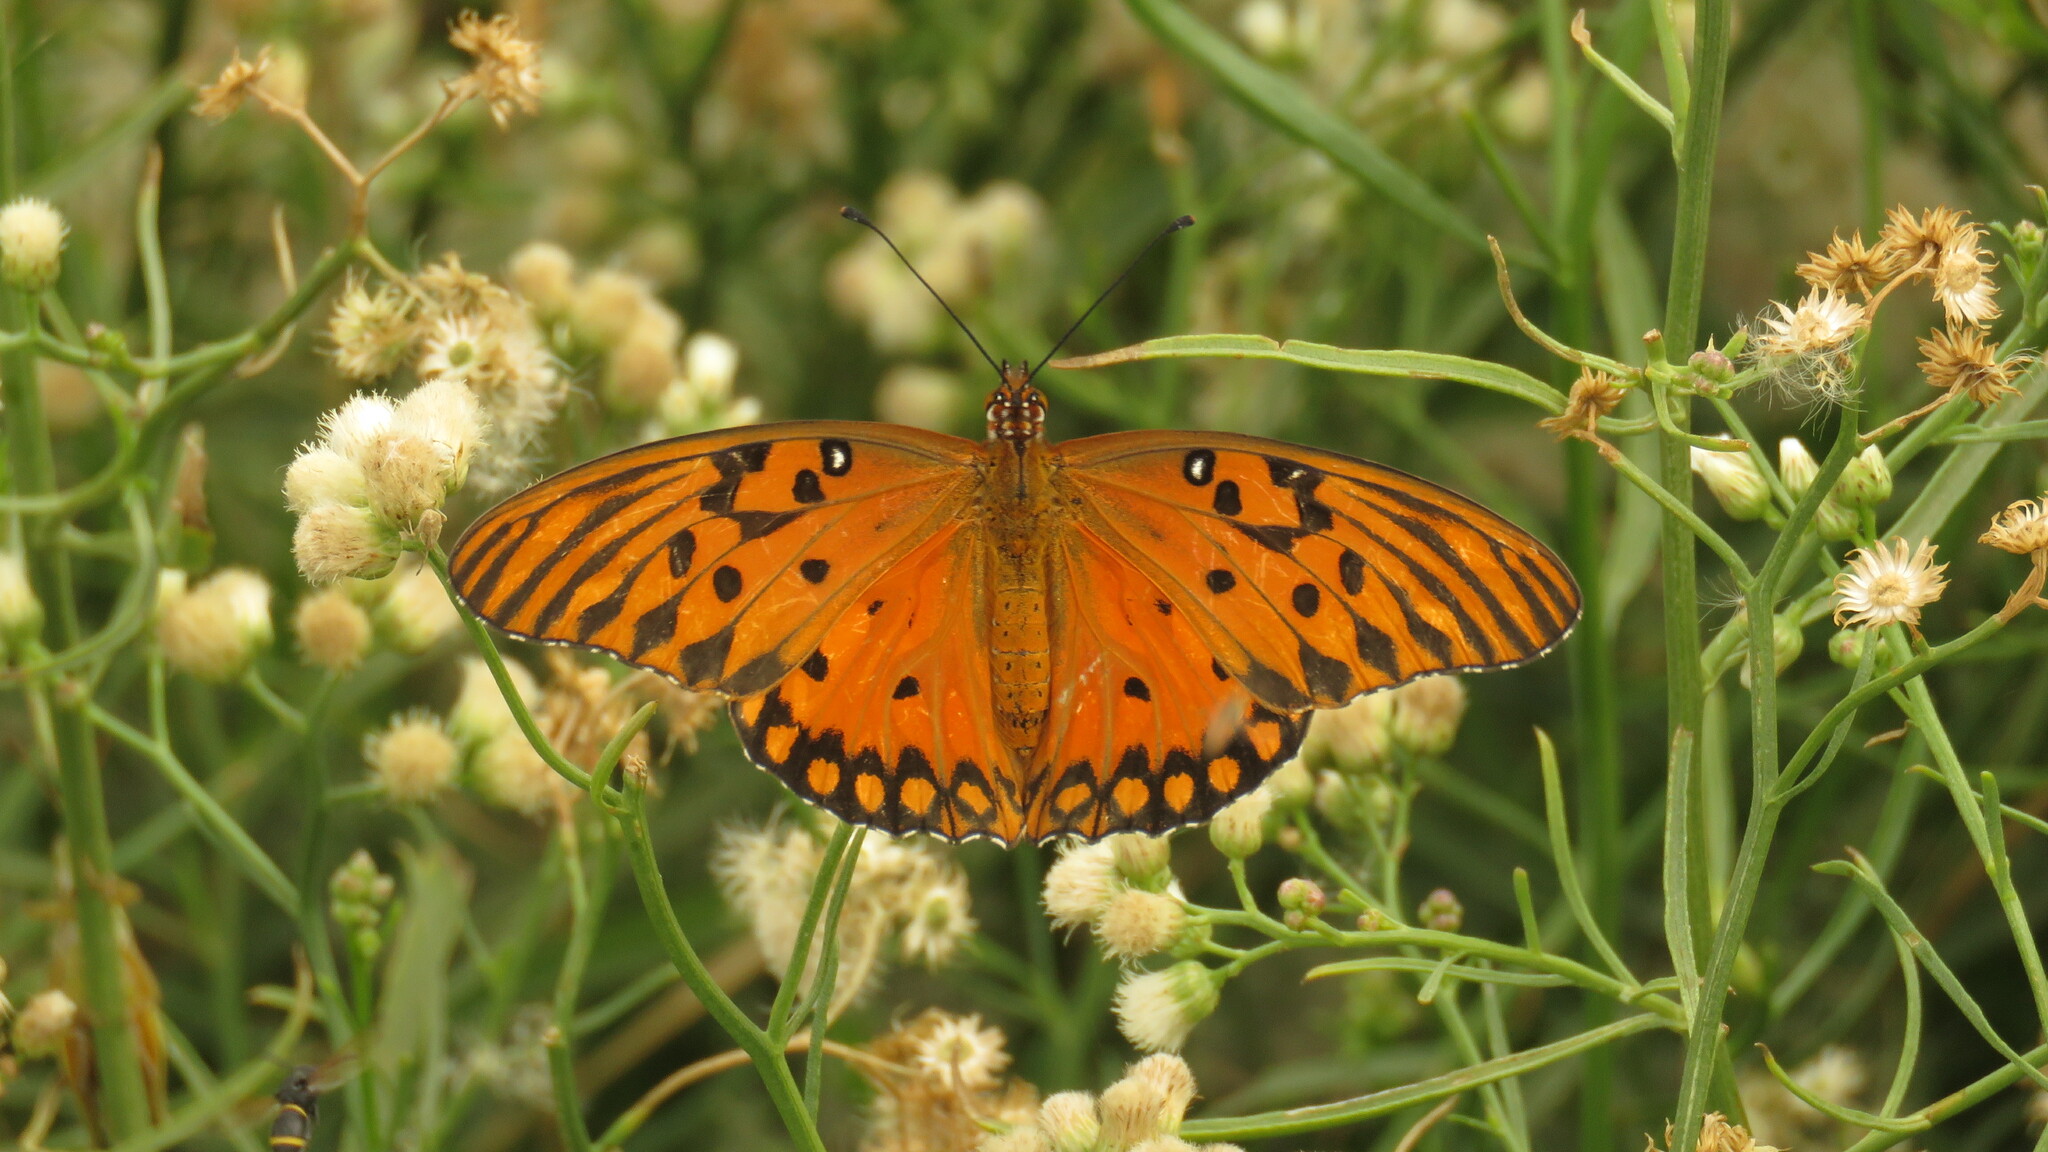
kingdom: Animalia
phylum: Arthropoda
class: Insecta
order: Lepidoptera
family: Nymphalidae
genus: Dione
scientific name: Dione vanillae
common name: Gulf fritillary
